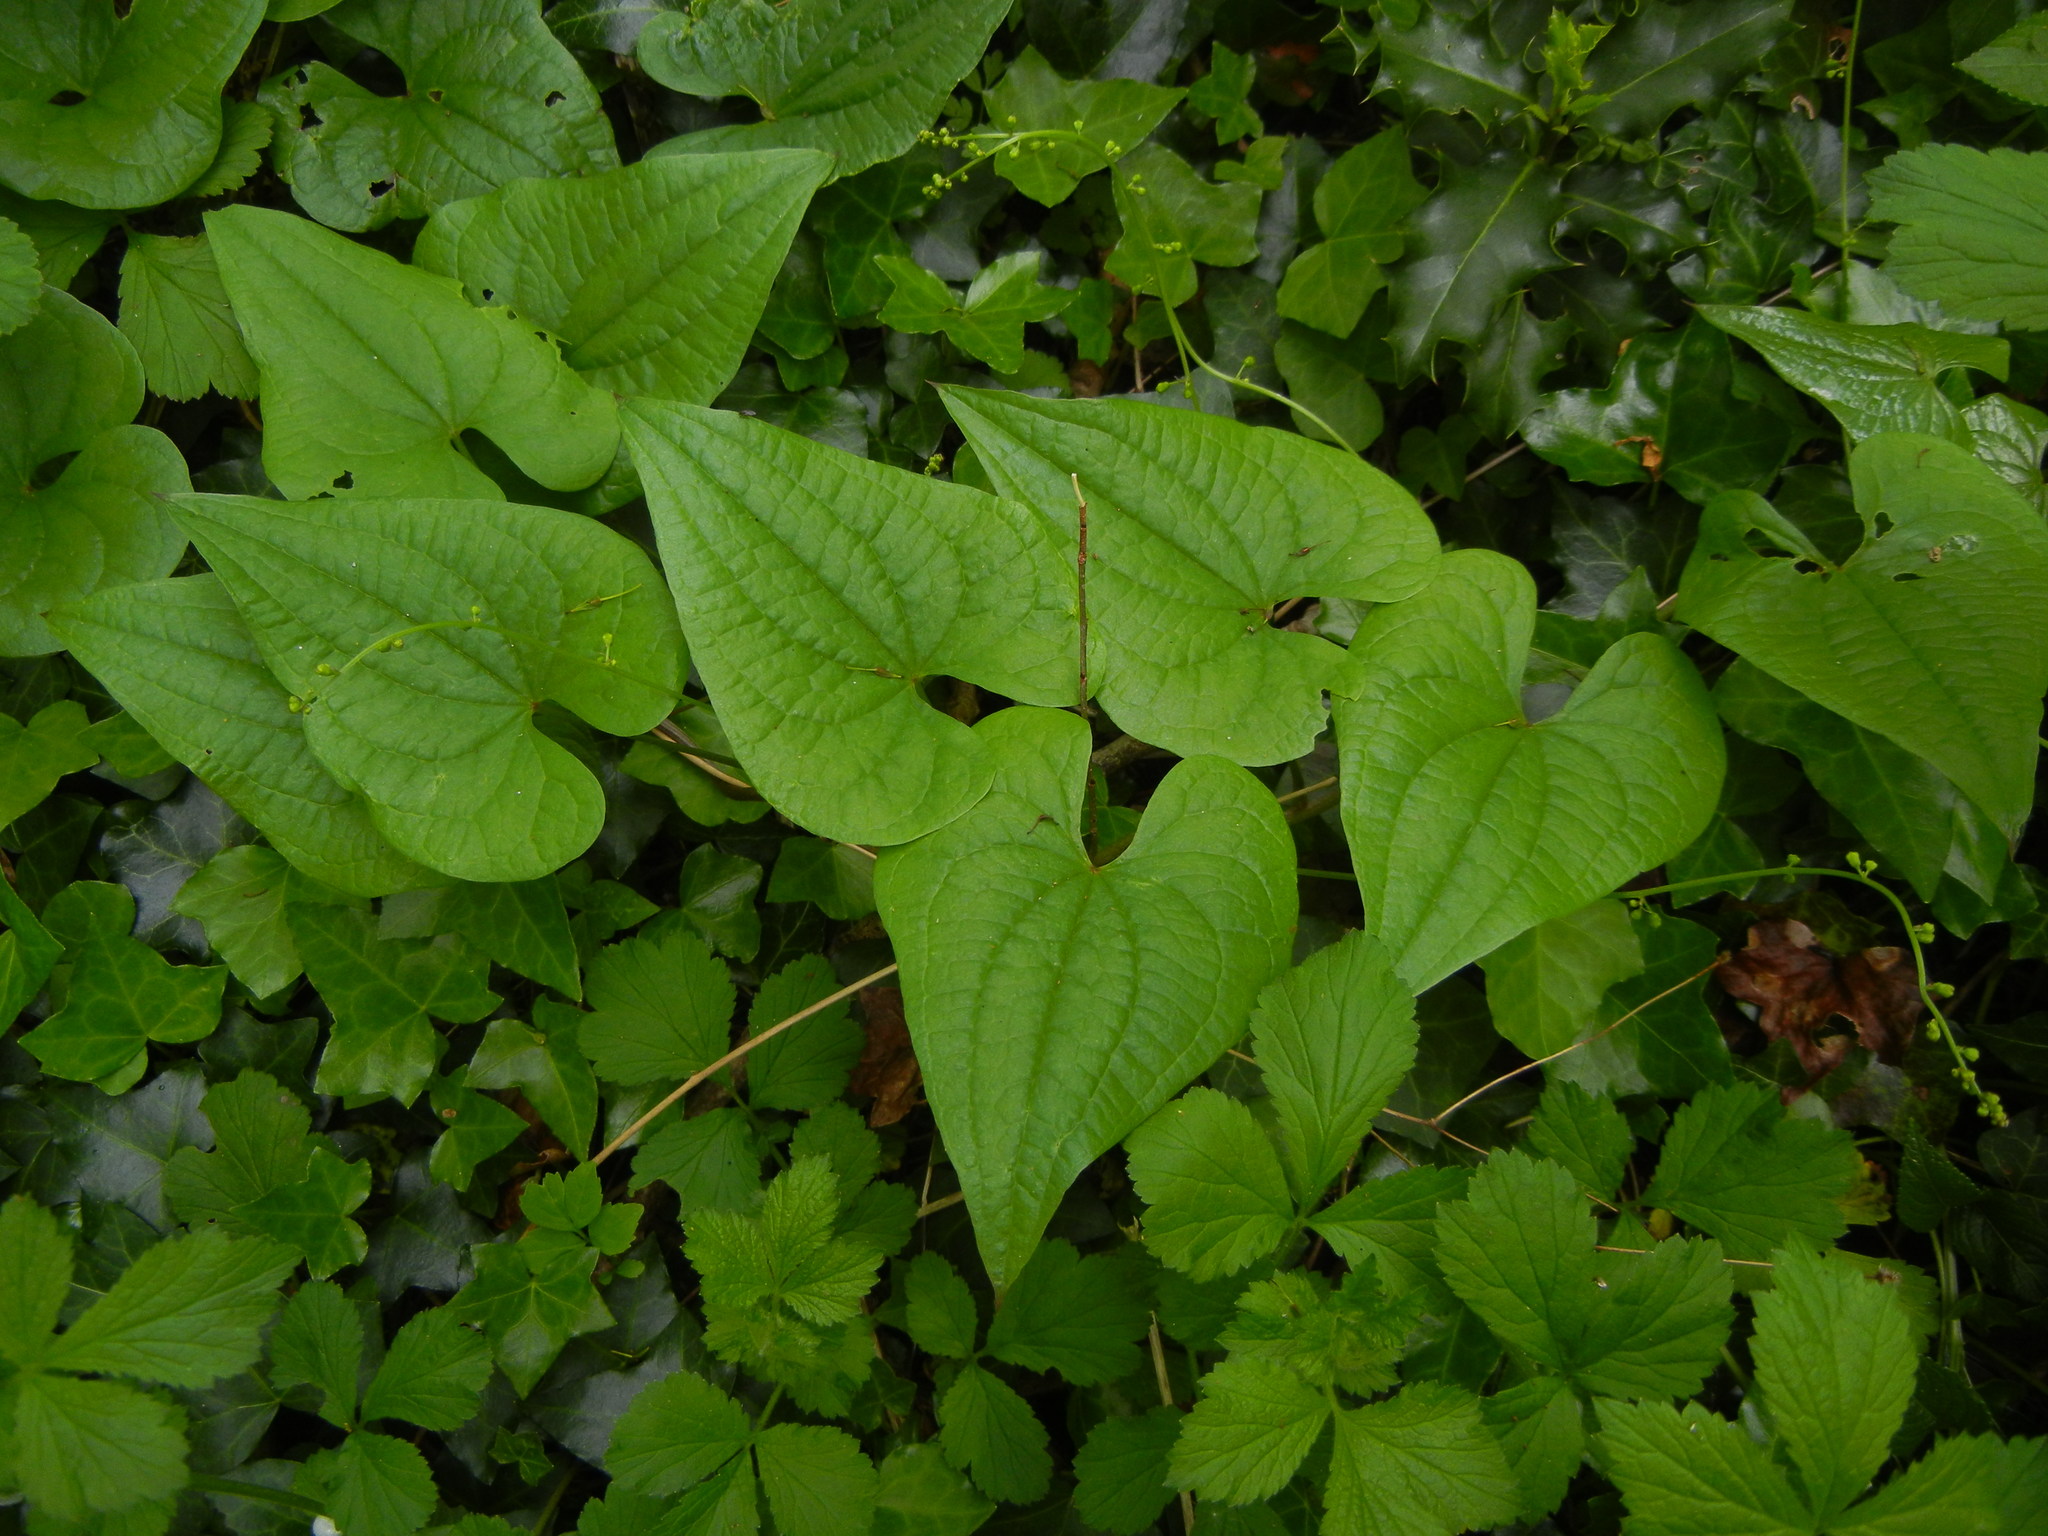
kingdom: Plantae
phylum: Tracheophyta
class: Liliopsida
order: Dioscoreales
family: Dioscoreaceae
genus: Dioscorea
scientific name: Dioscorea communis
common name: Black-bindweed
